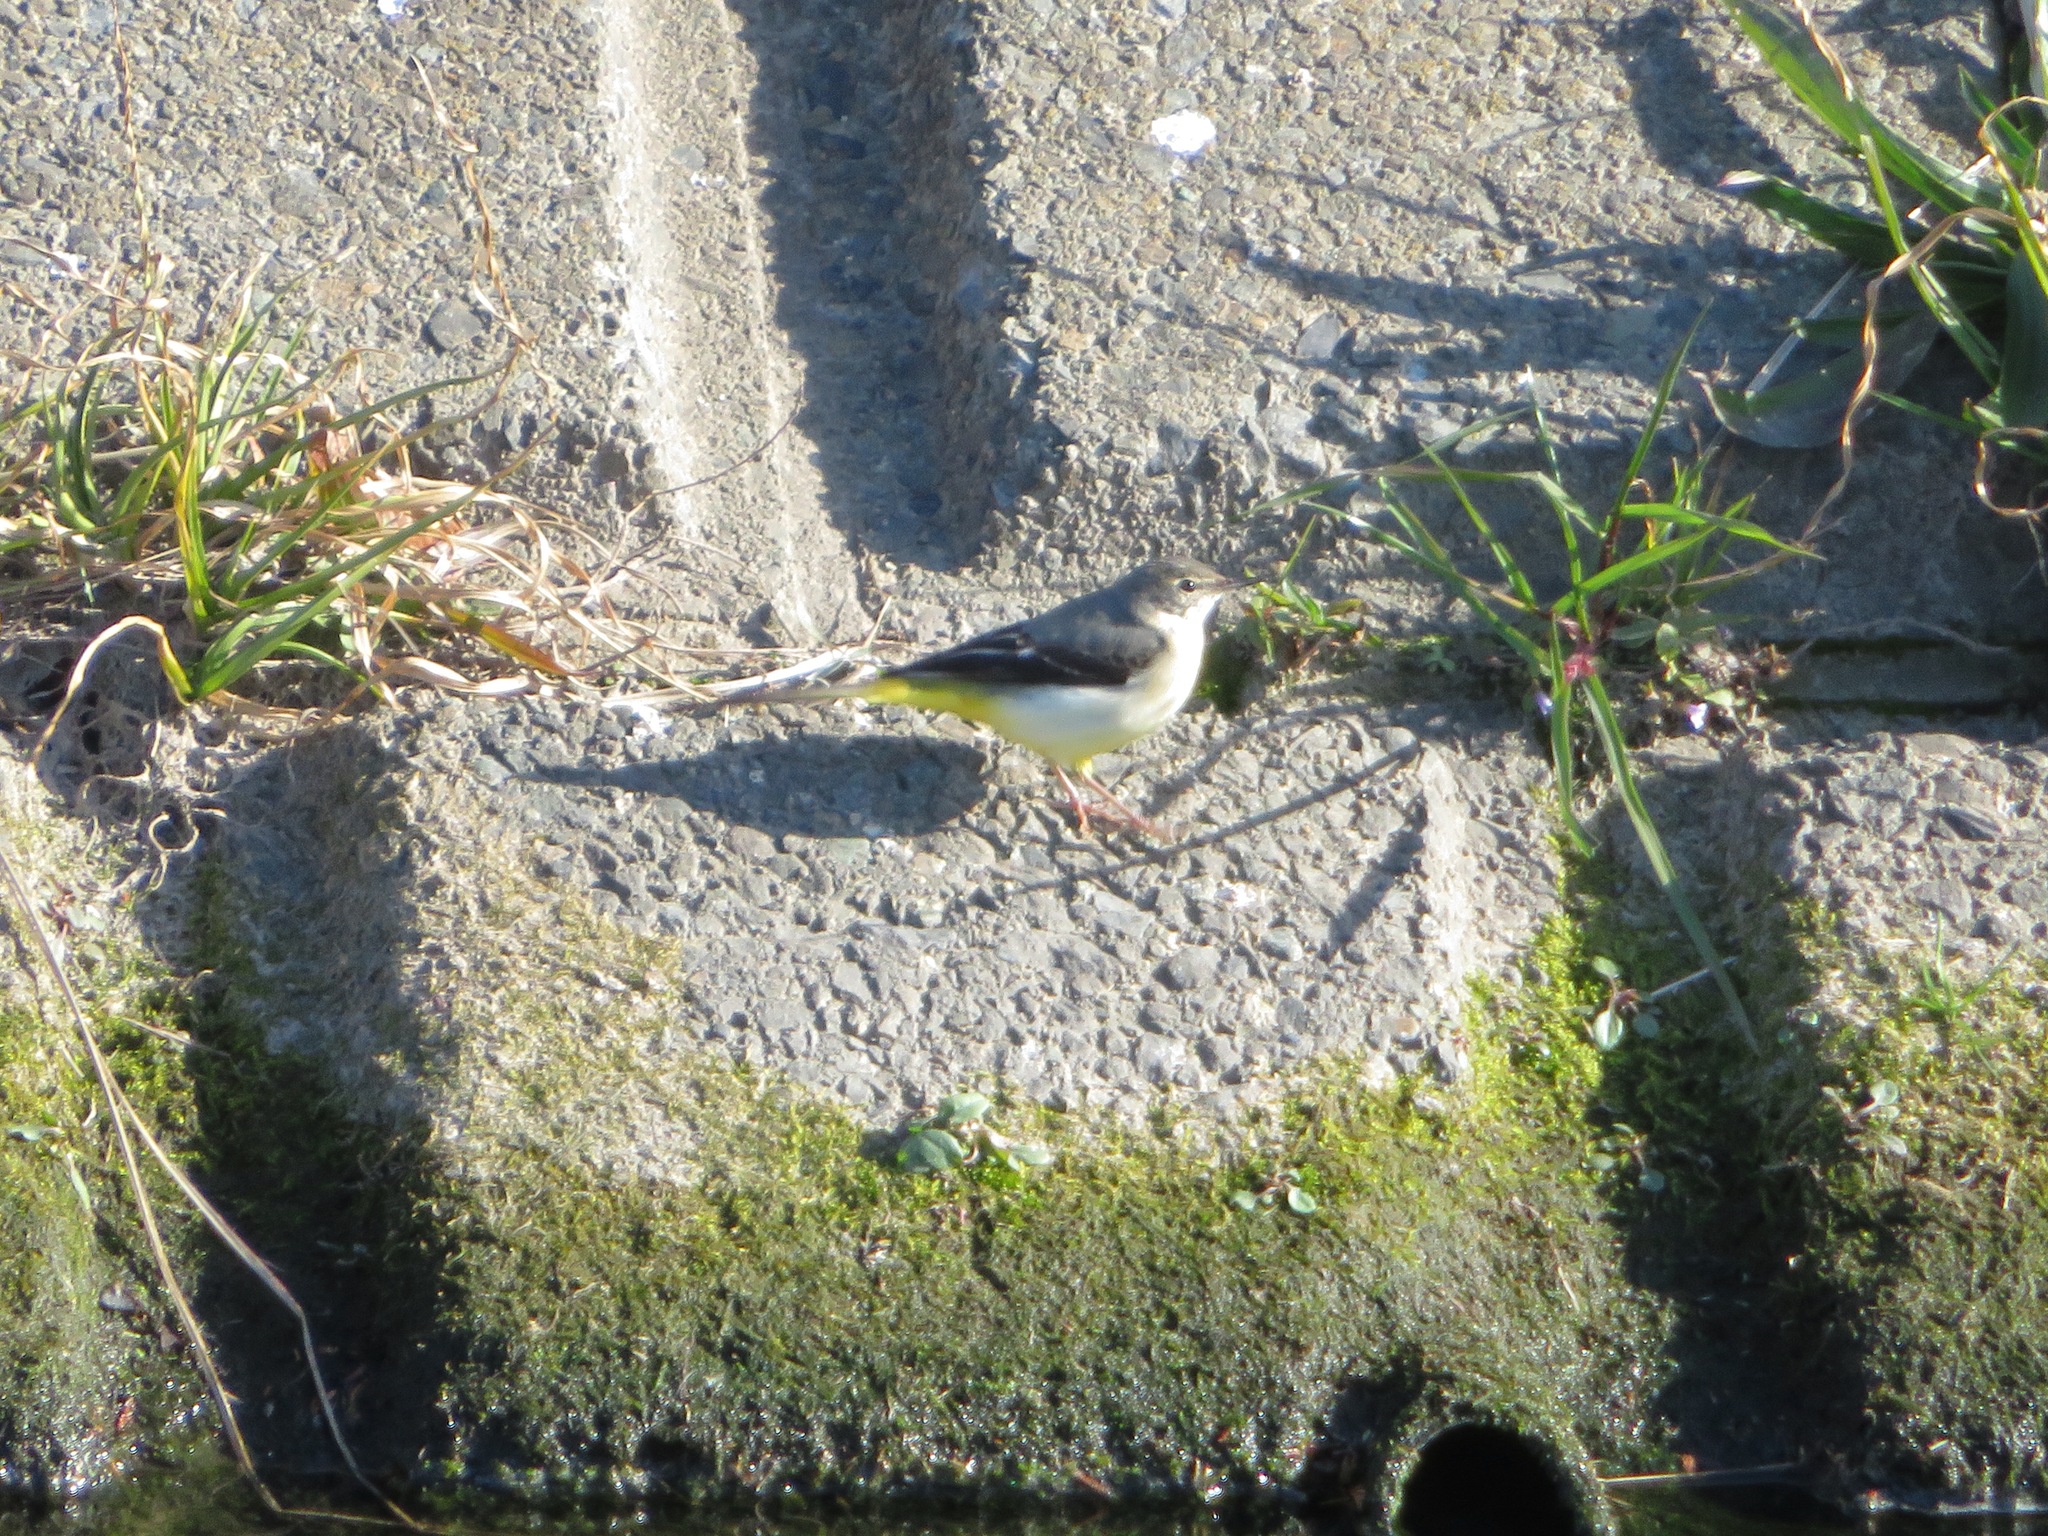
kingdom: Animalia
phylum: Chordata
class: Aves
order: Passeriformes
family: Motacillidae
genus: Motacilla
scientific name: Motacilla cinerea
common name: Grey wagtail
